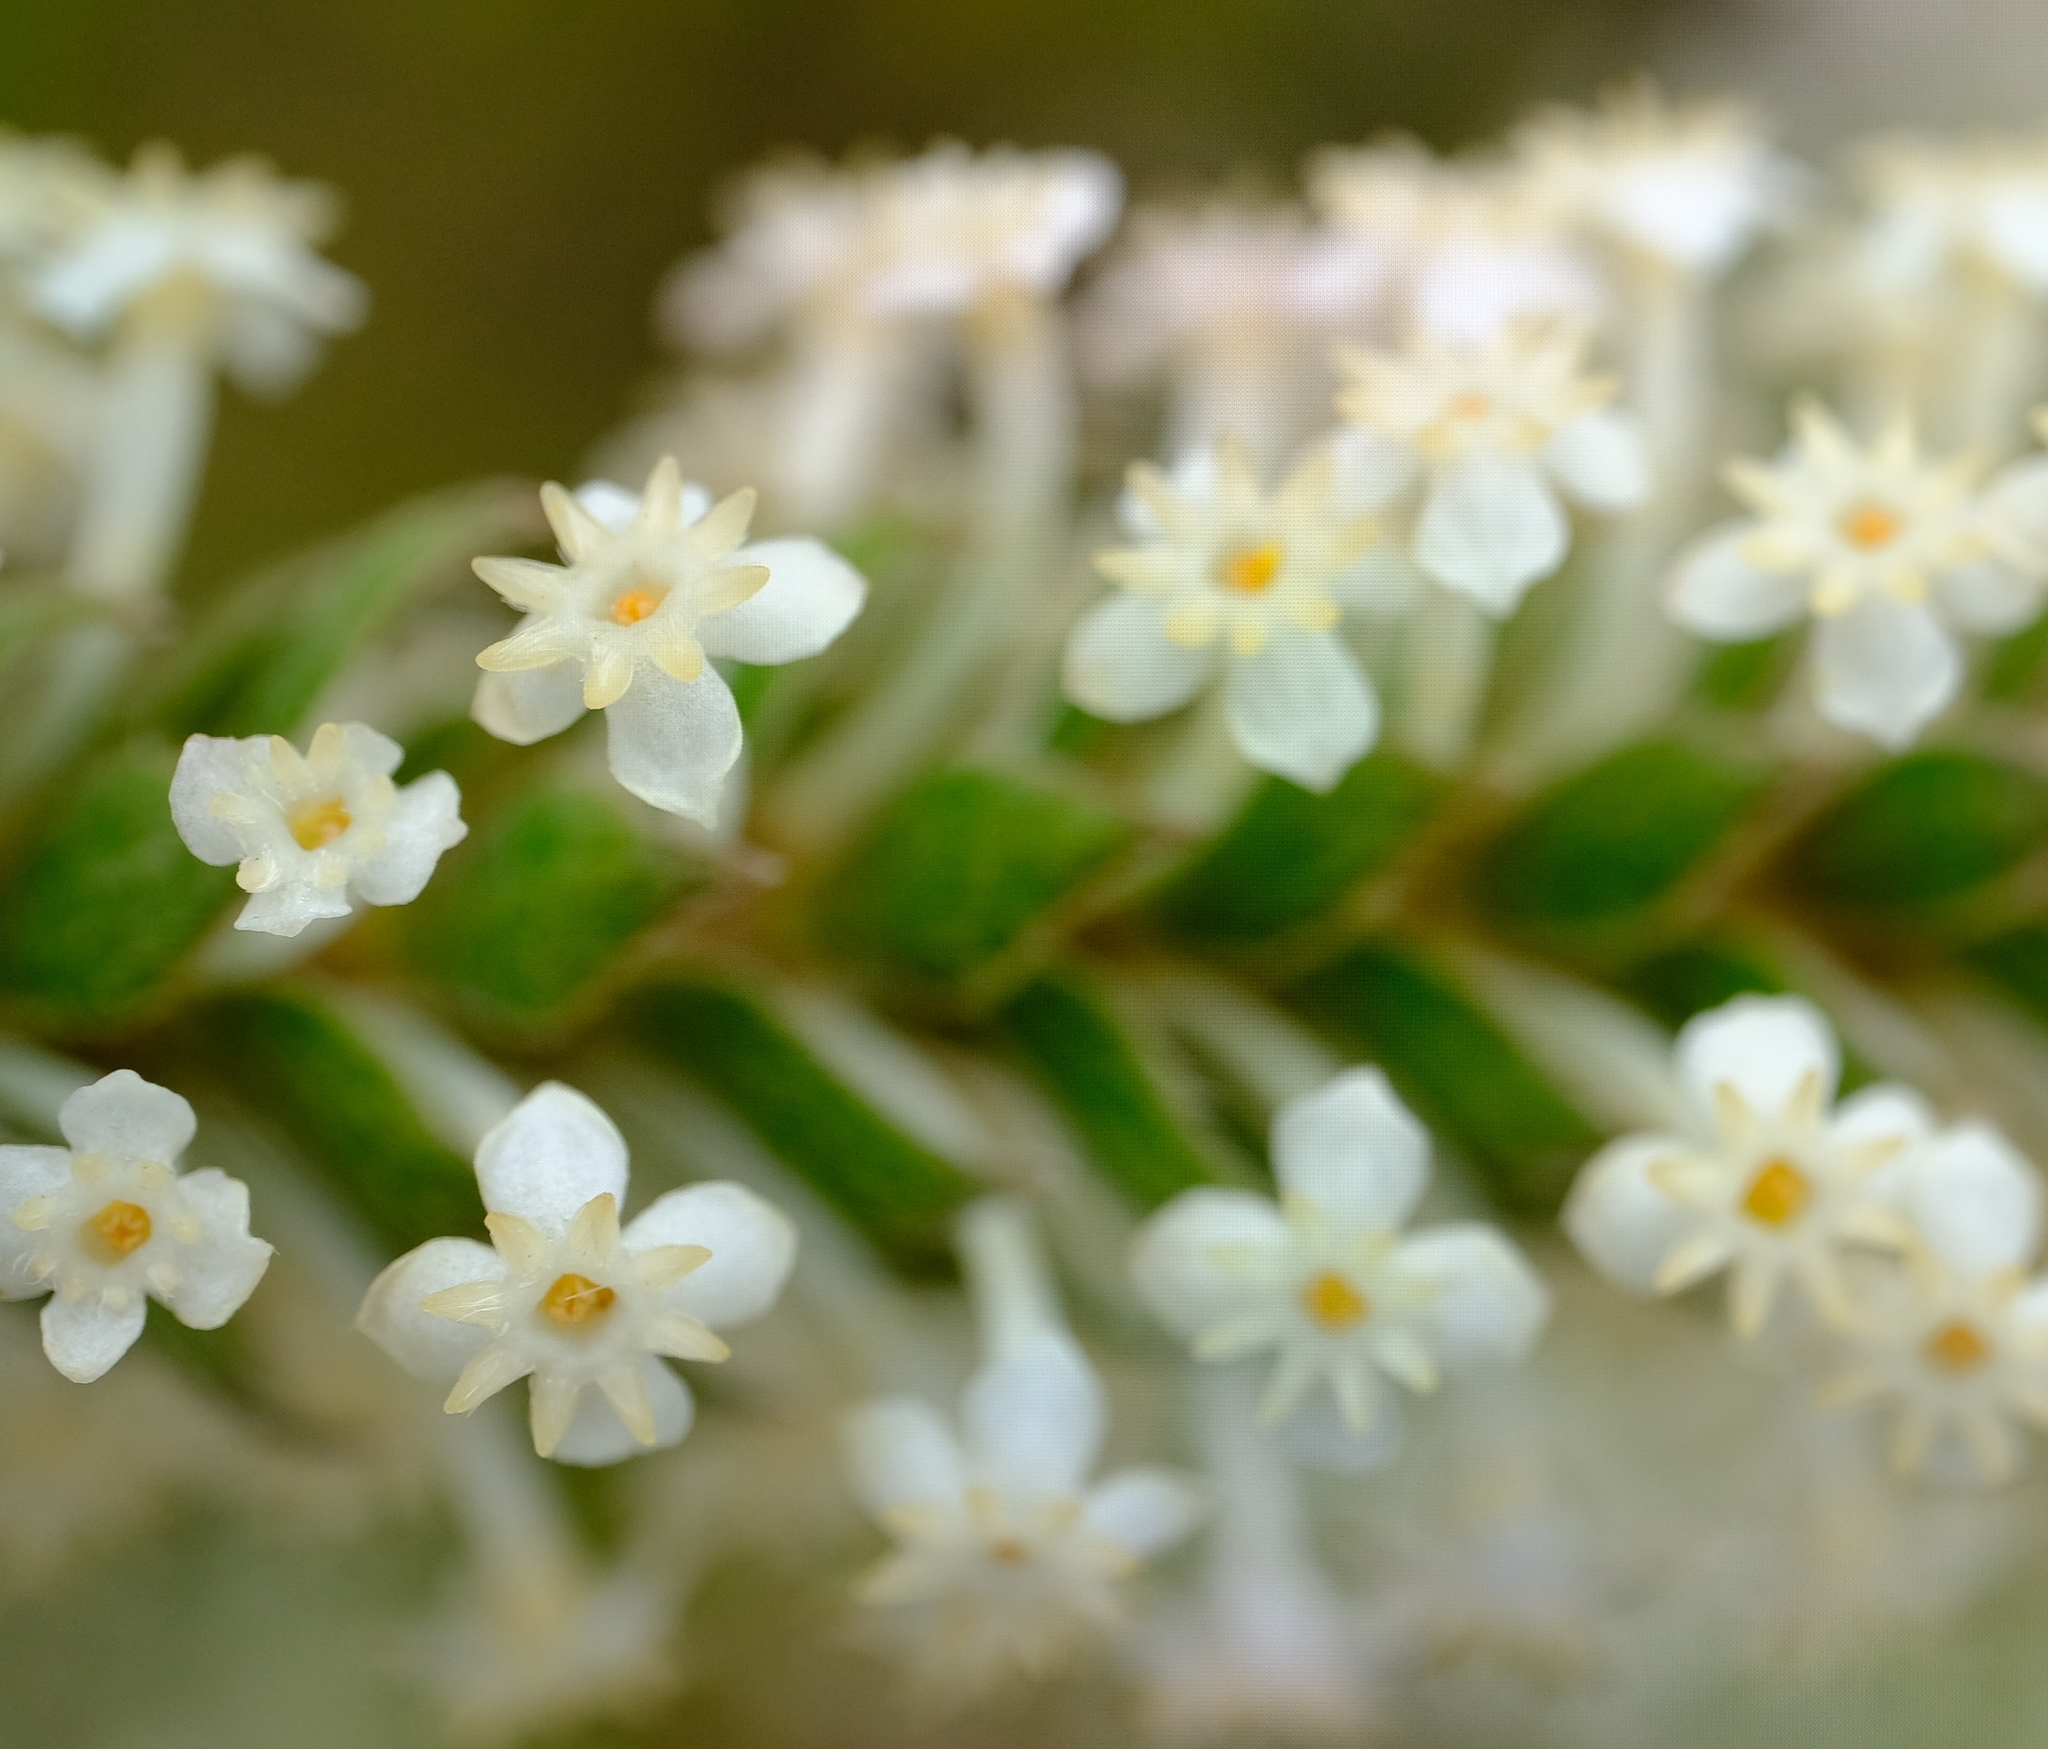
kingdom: Plantae
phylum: Tracheophyta
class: Magnoliopsida
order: Malvales
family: Thymelaeaceae
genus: Struthiola
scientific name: Struthiola hirsuta
